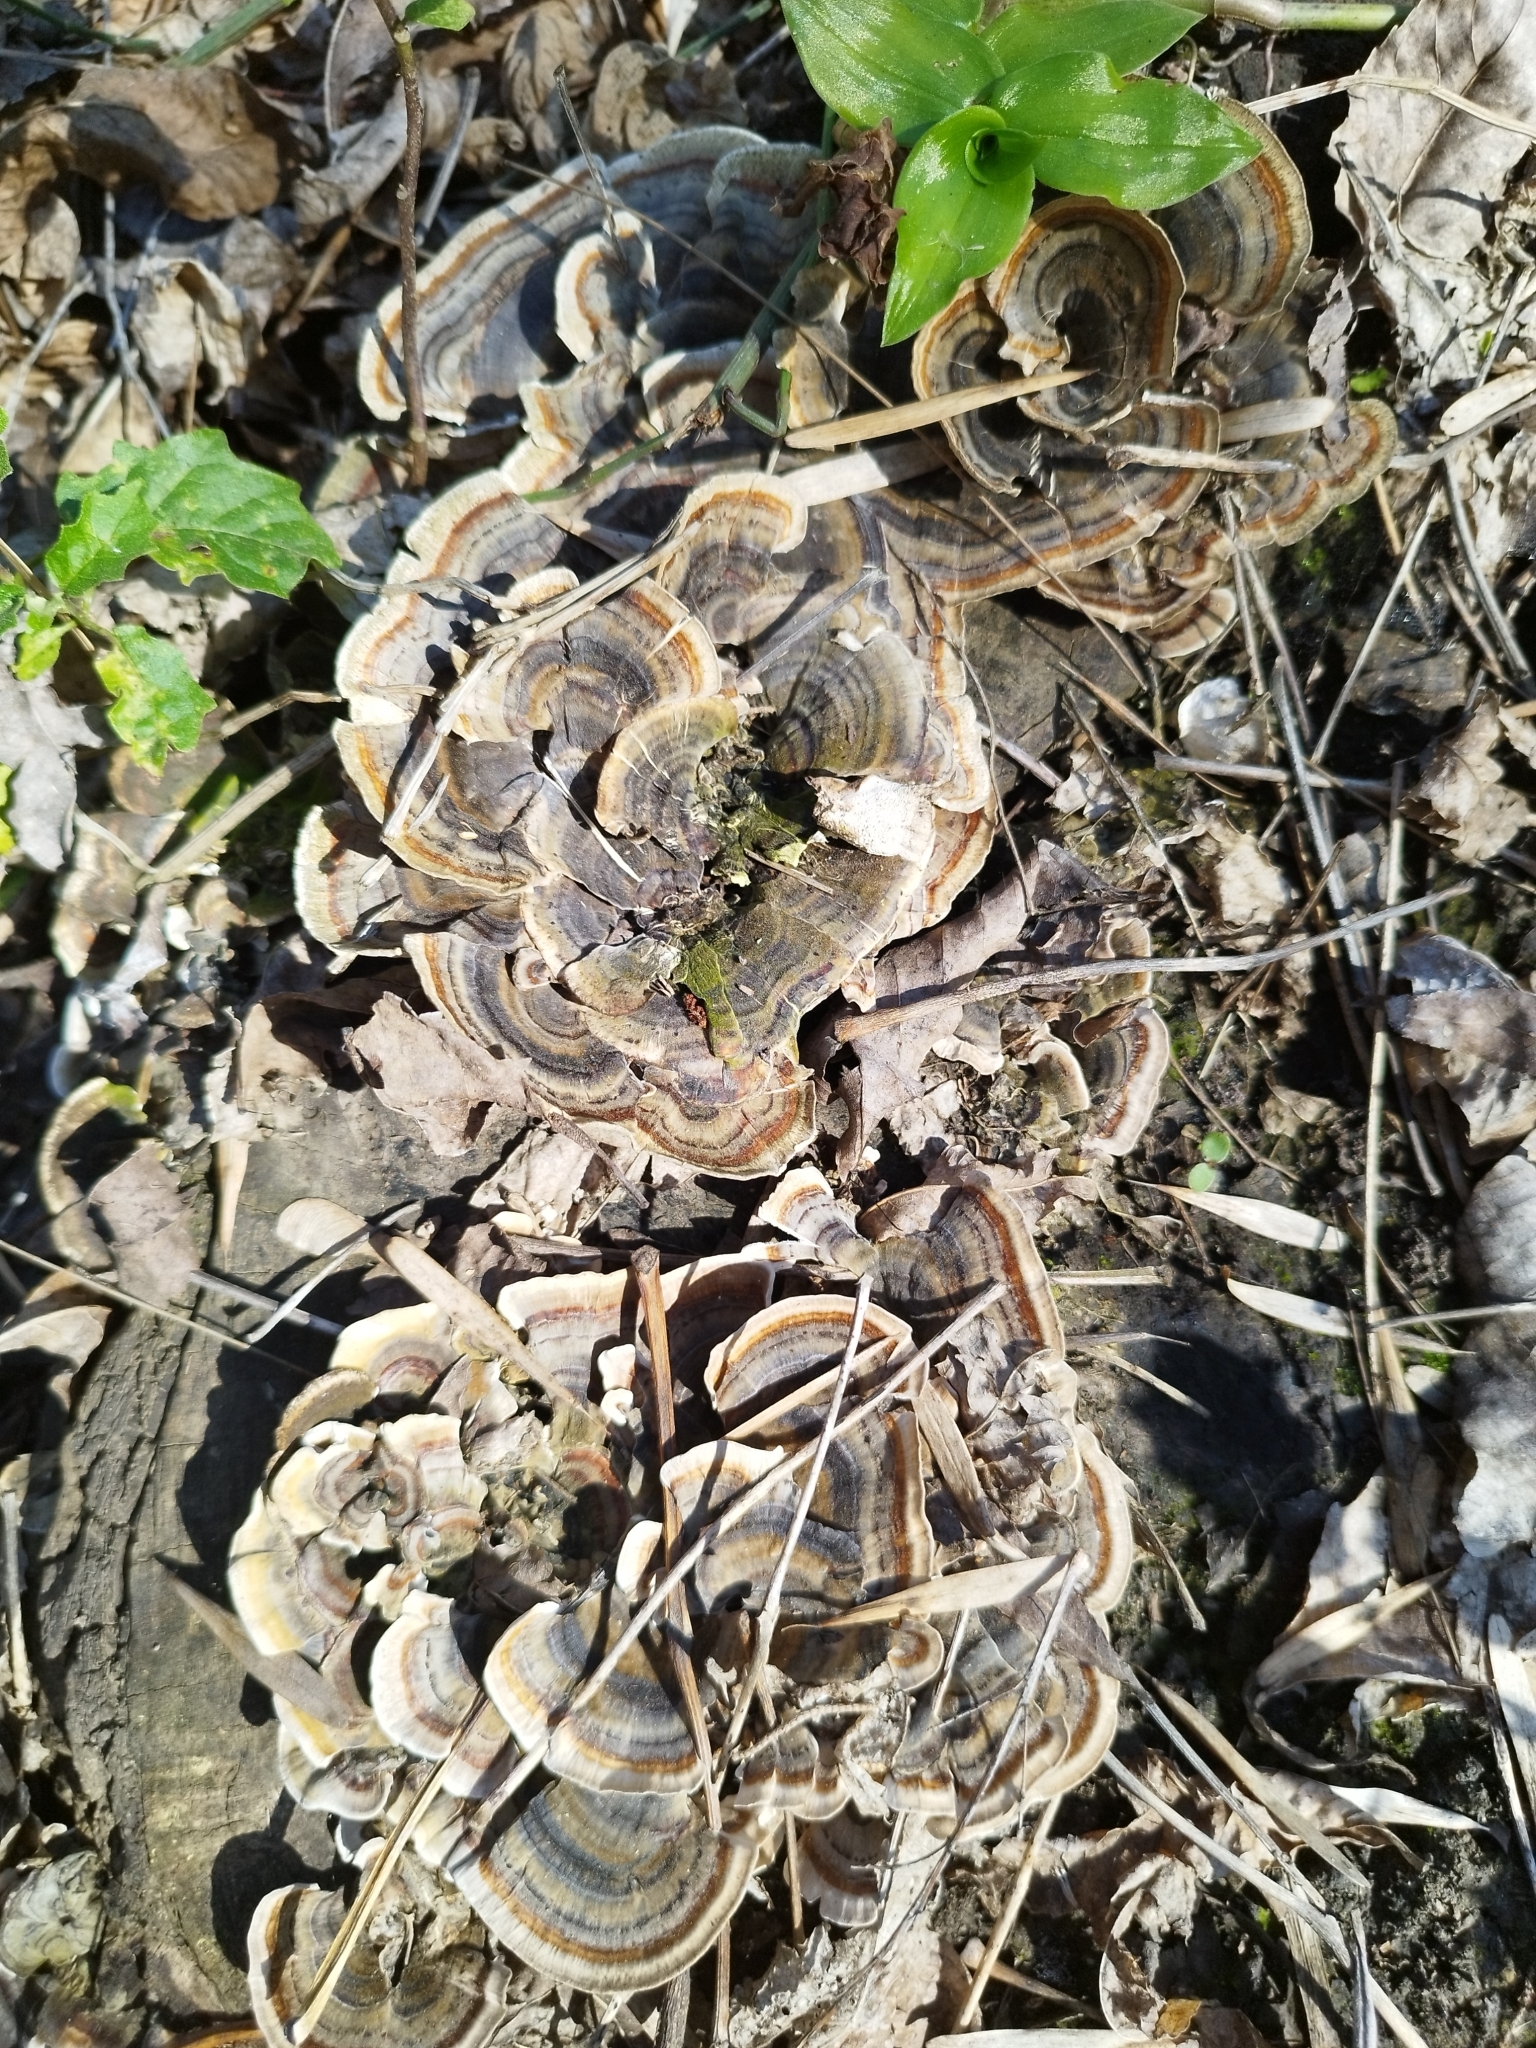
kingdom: Fungi
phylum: Basidiomycota
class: Agaricomycetes
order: Polyporales
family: Polyporaceae
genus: Trametes
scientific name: Trametes versicolor
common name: Turkeytail
